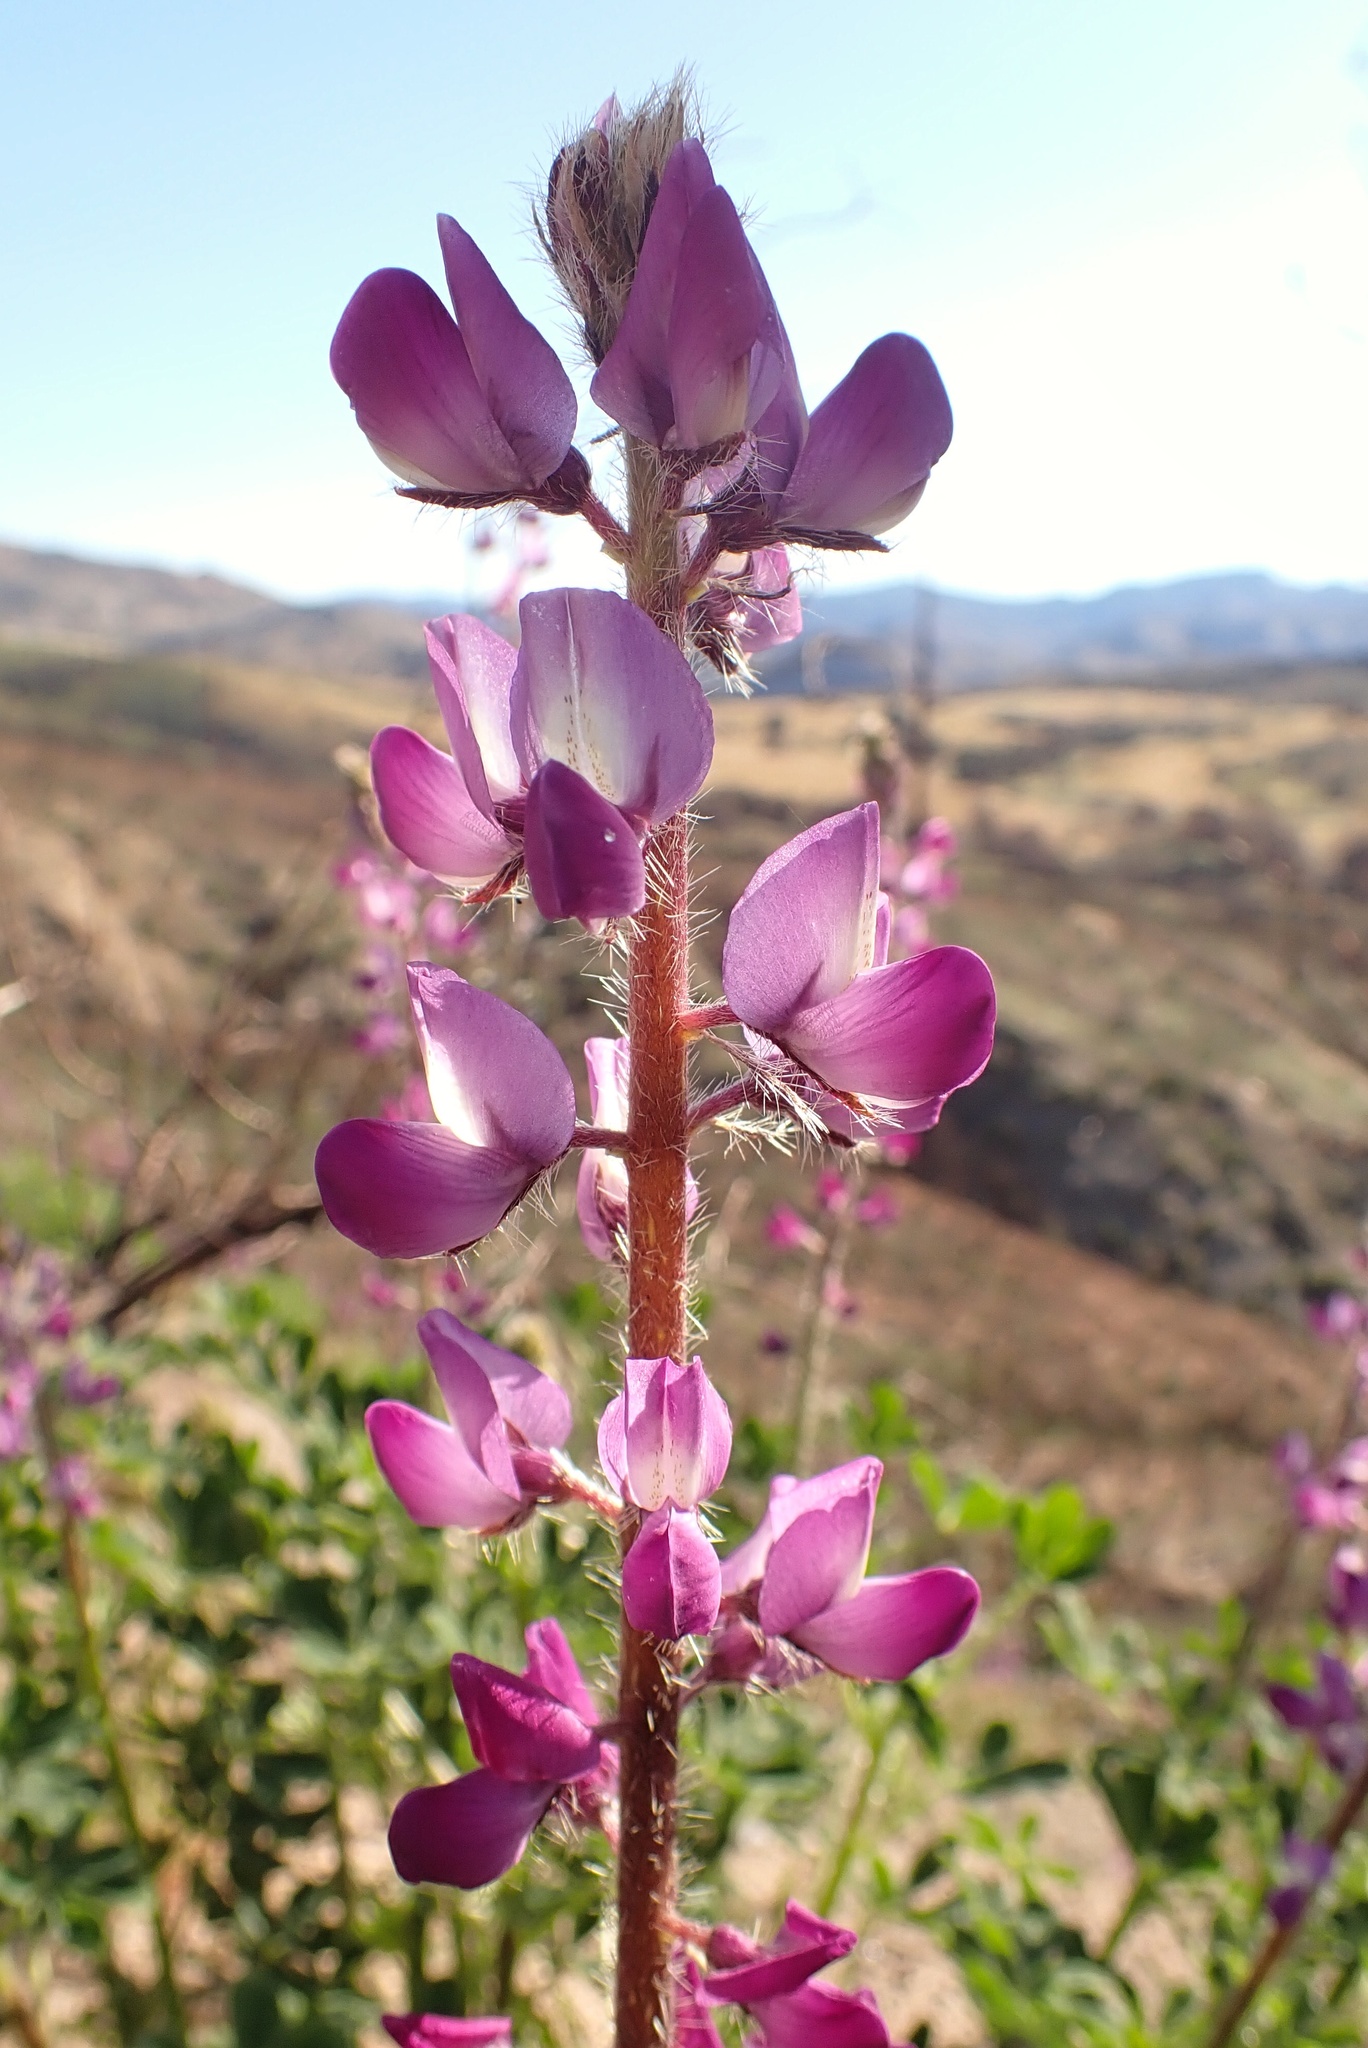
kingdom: Plantae
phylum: Tracheophyta
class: Magnoliopsida
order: Fabales
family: Fabaceae
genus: Lupinus
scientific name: Lupinus hirsutissimus
